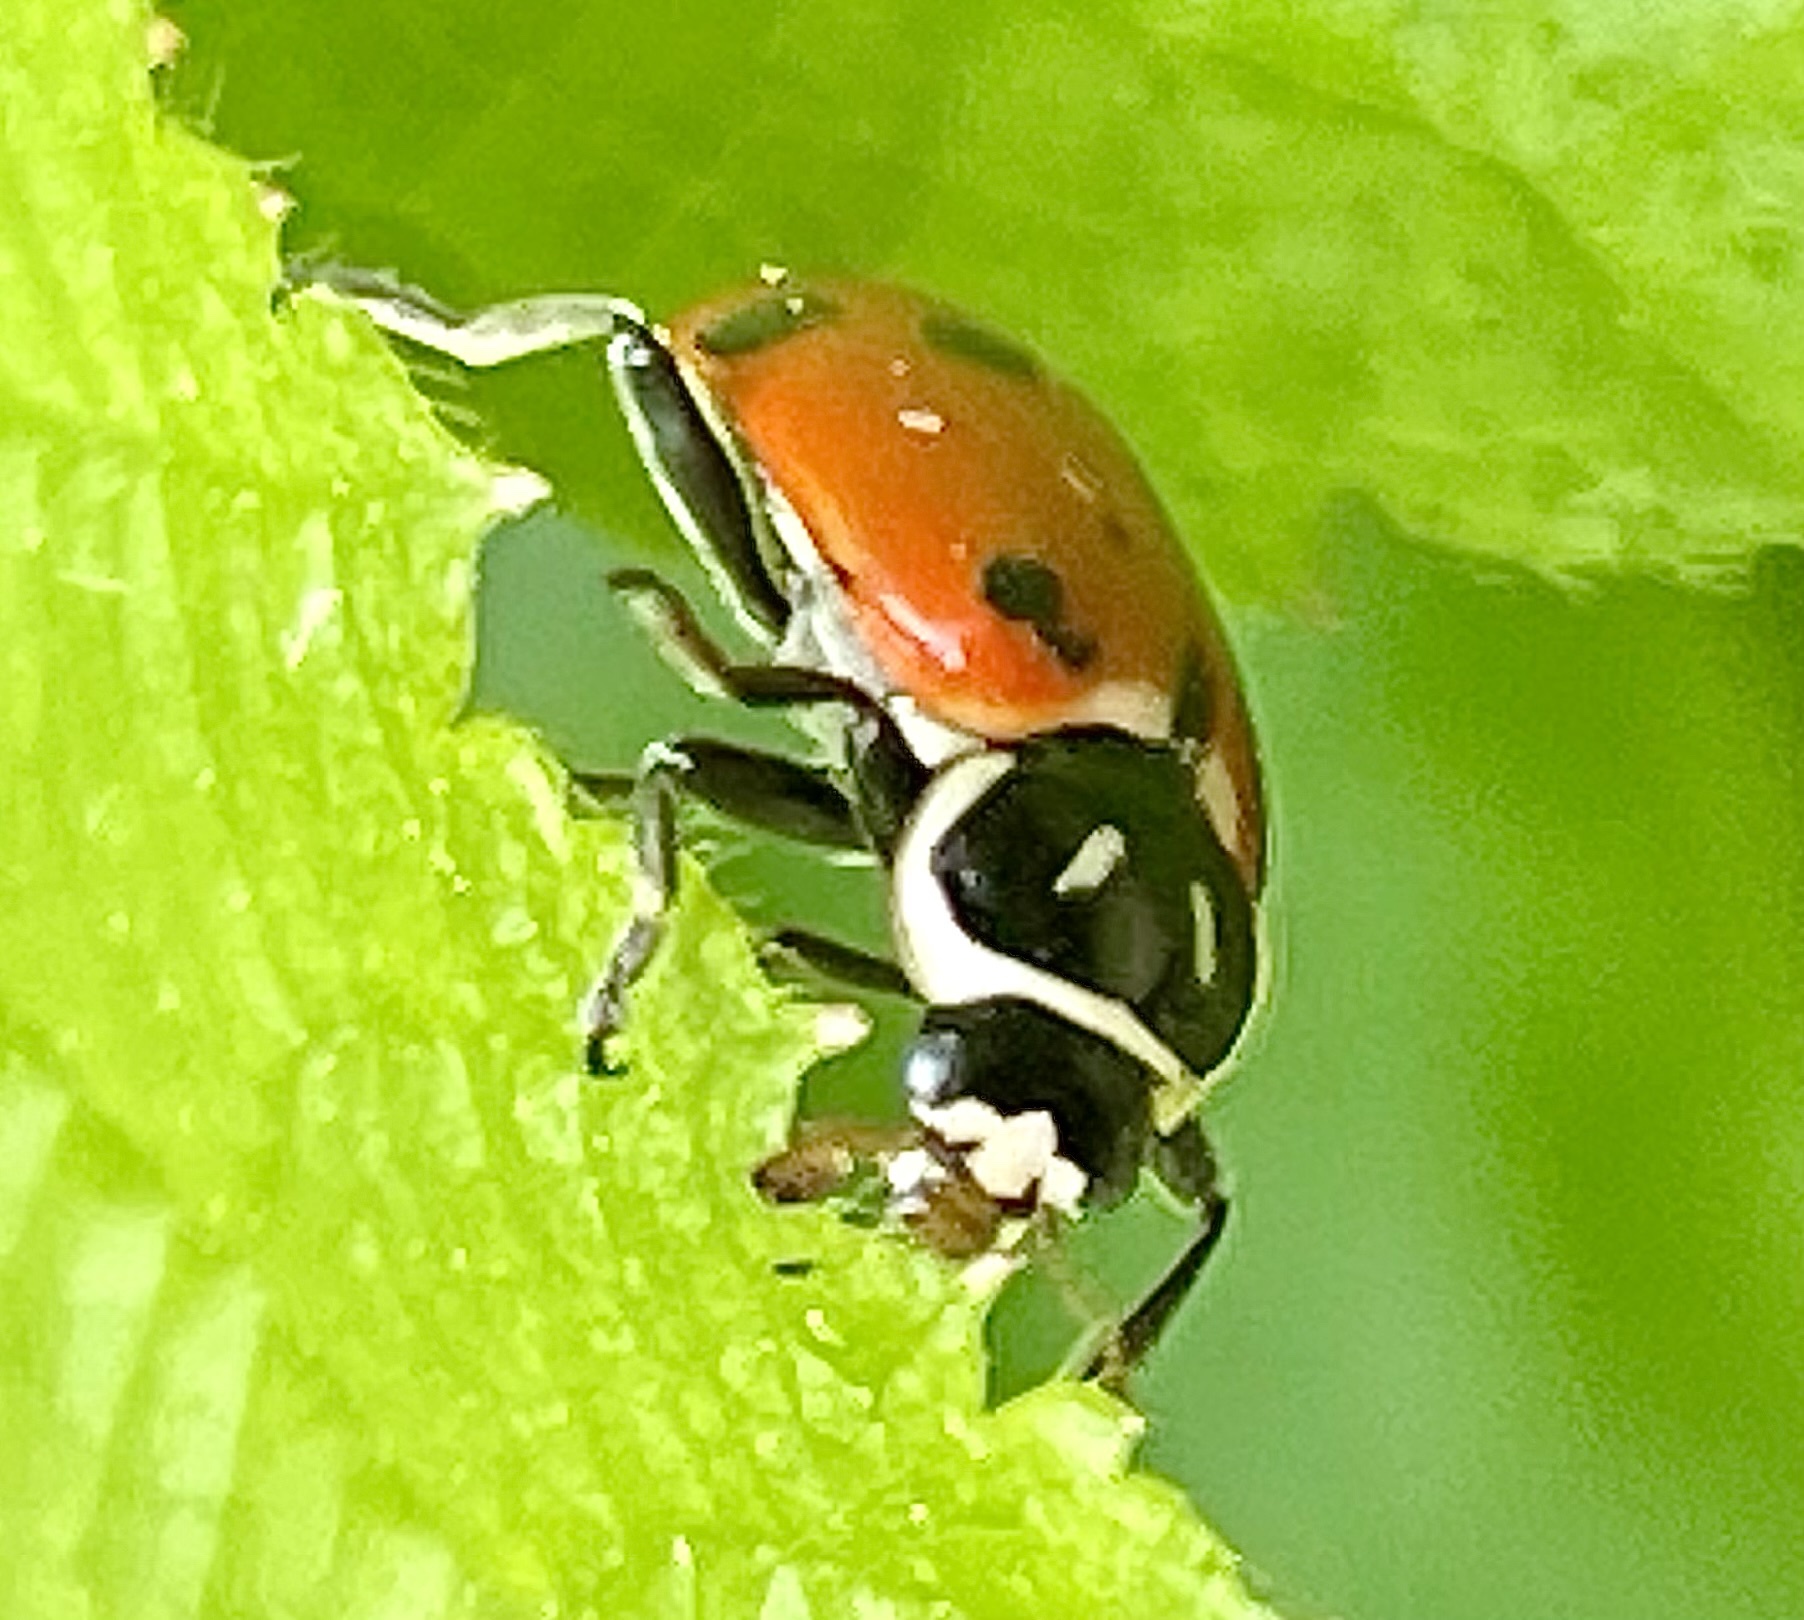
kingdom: Animalia
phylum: Arthropoda
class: Insecta
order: Coleoptera
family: Coccinellidae
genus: Hippodamia
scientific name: Hippodamia convergens
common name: Convergent lady beetle
